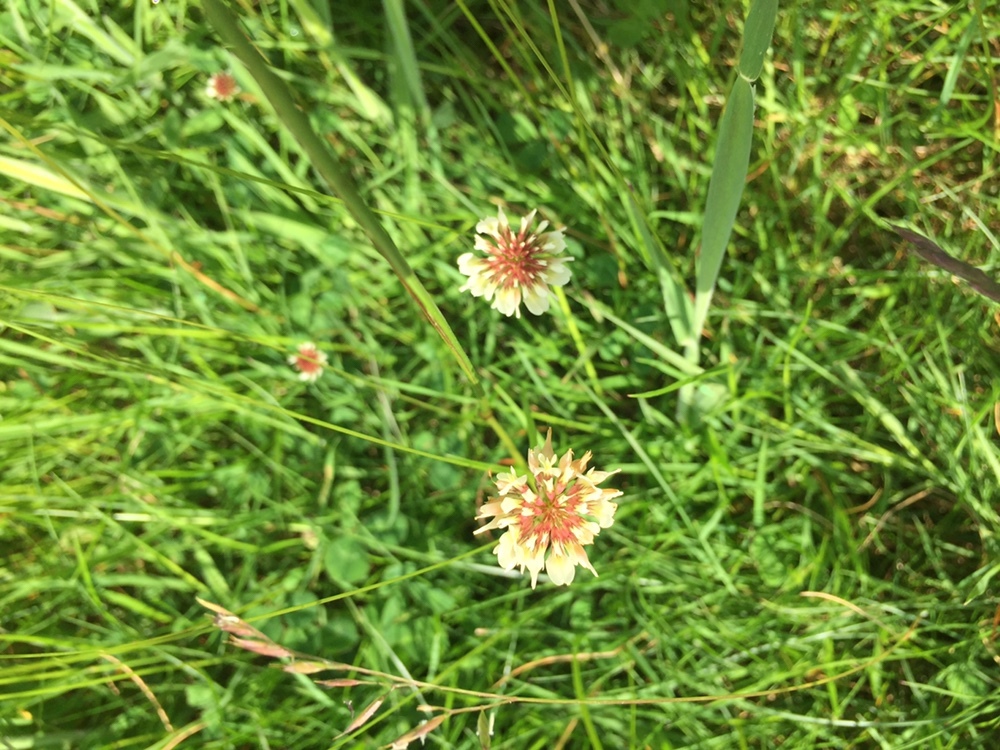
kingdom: Plantae
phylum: Tracheophyta
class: Magnoliopsida
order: Fabales
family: Fabaceae
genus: Trifolium
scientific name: Trifolium repens
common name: White clover
